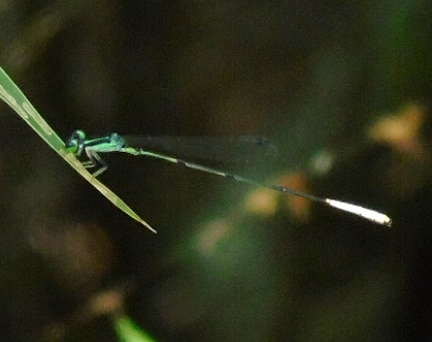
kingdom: Animalia
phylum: Arthropoda
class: Insecta
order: Odonata
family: Coenagrionidae
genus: Leptobasis
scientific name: Leptobasis melinogaster
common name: Cream-tipped swampdamsel
